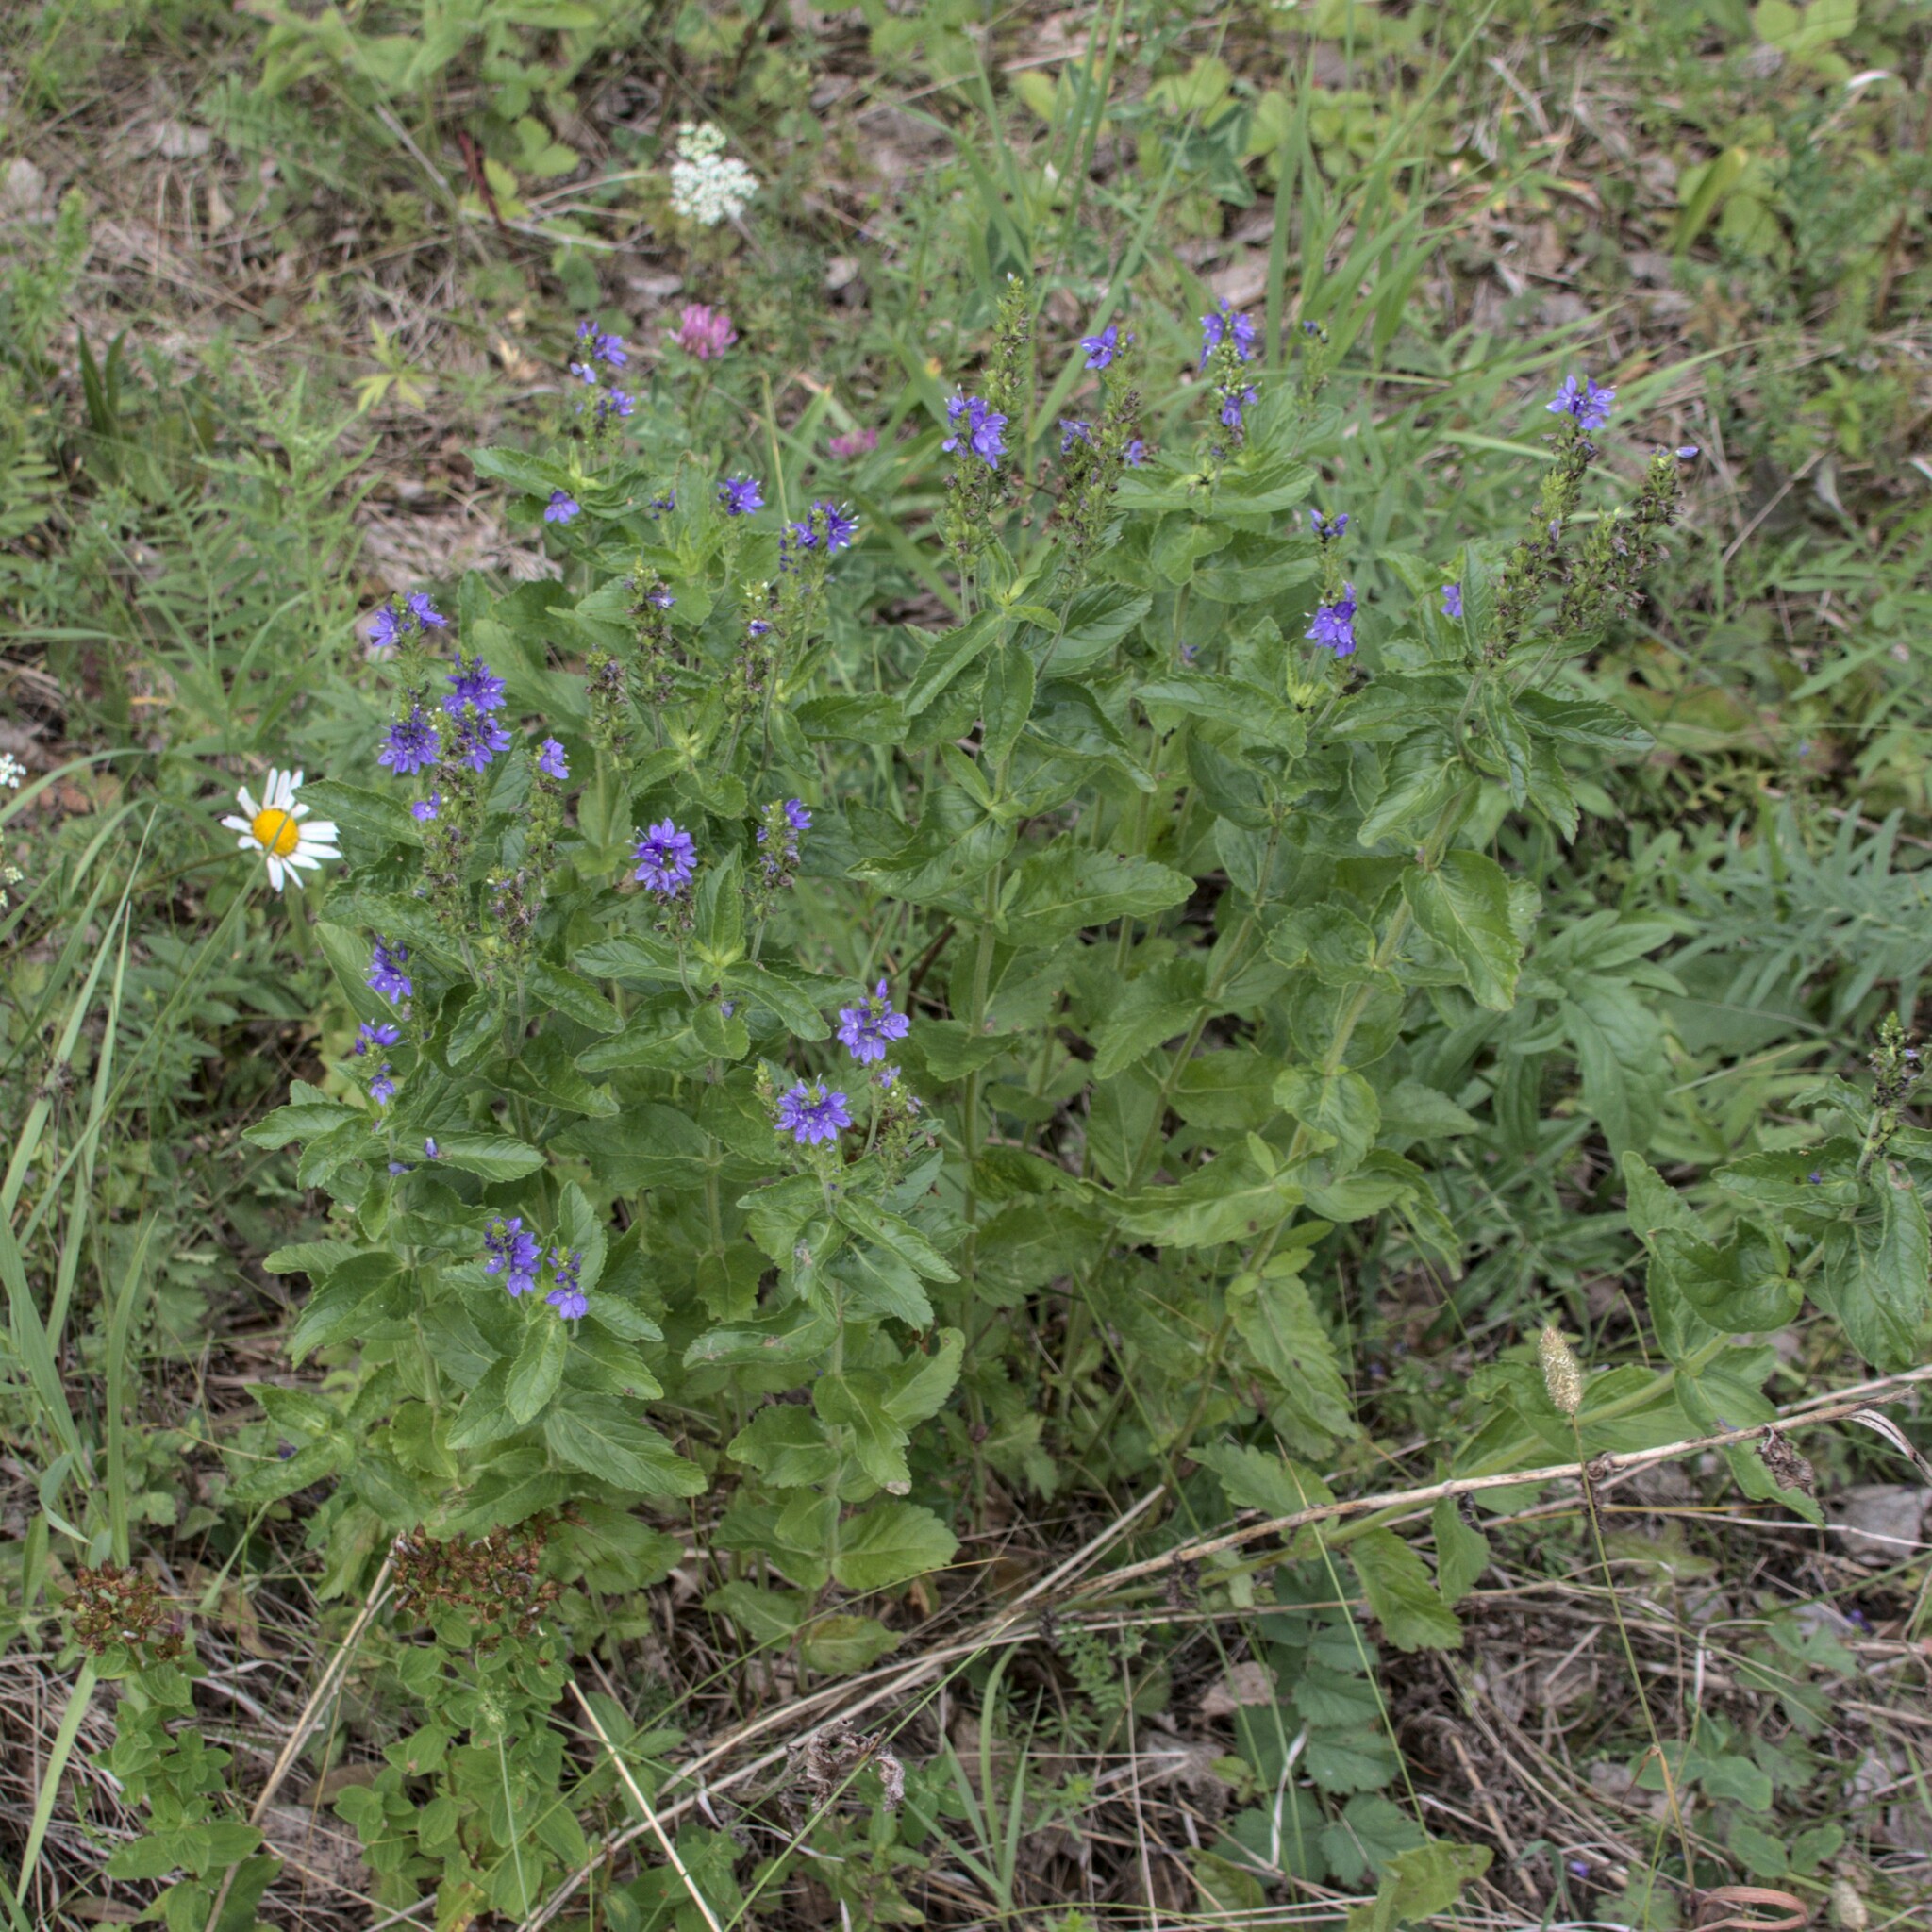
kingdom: Plantae
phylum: Tracheophyta
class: Magnoliopsida
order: Lamiales
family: Plantaginaceae
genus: Veronica
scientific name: Veronica teucrium
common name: Large speedwell
